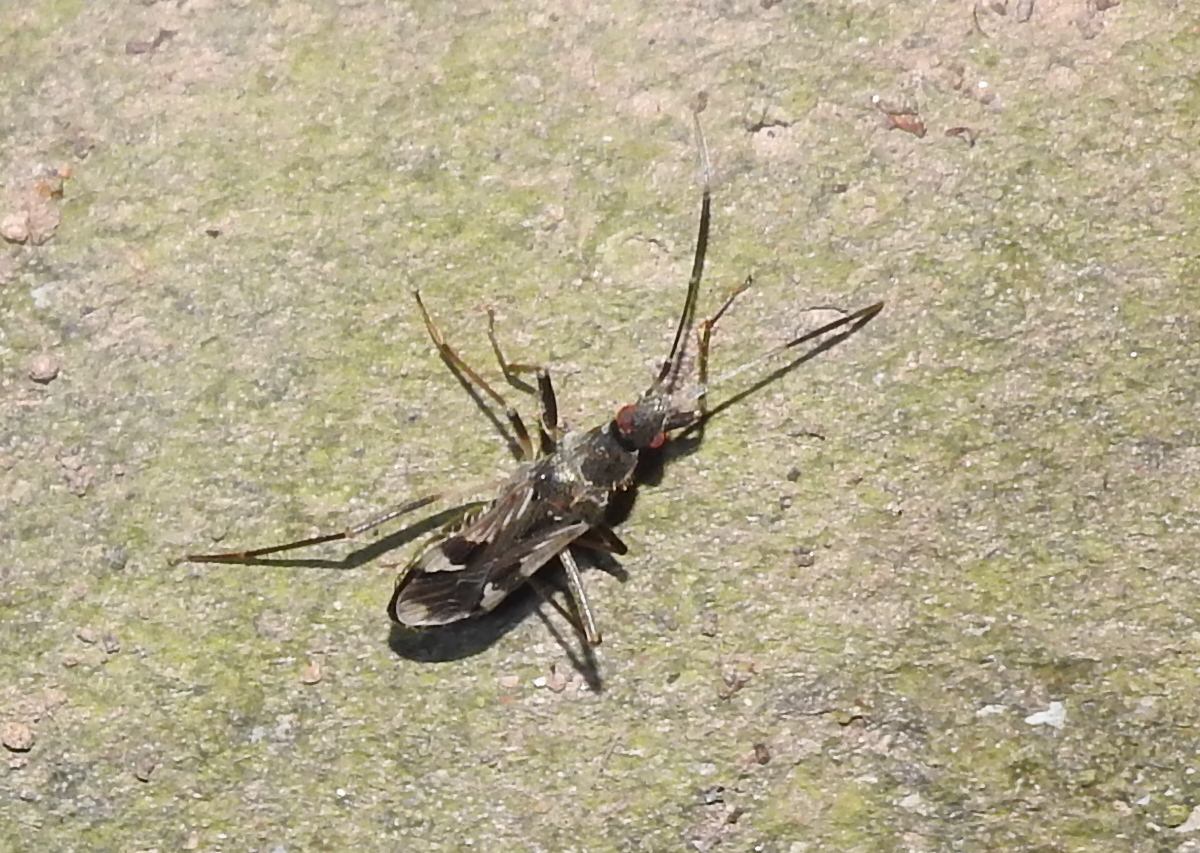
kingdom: Animalia
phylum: Arthropoda
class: Insecta
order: Hemiptera
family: Rhyparochromidae
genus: Metochus
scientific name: Metochus schultheissi
